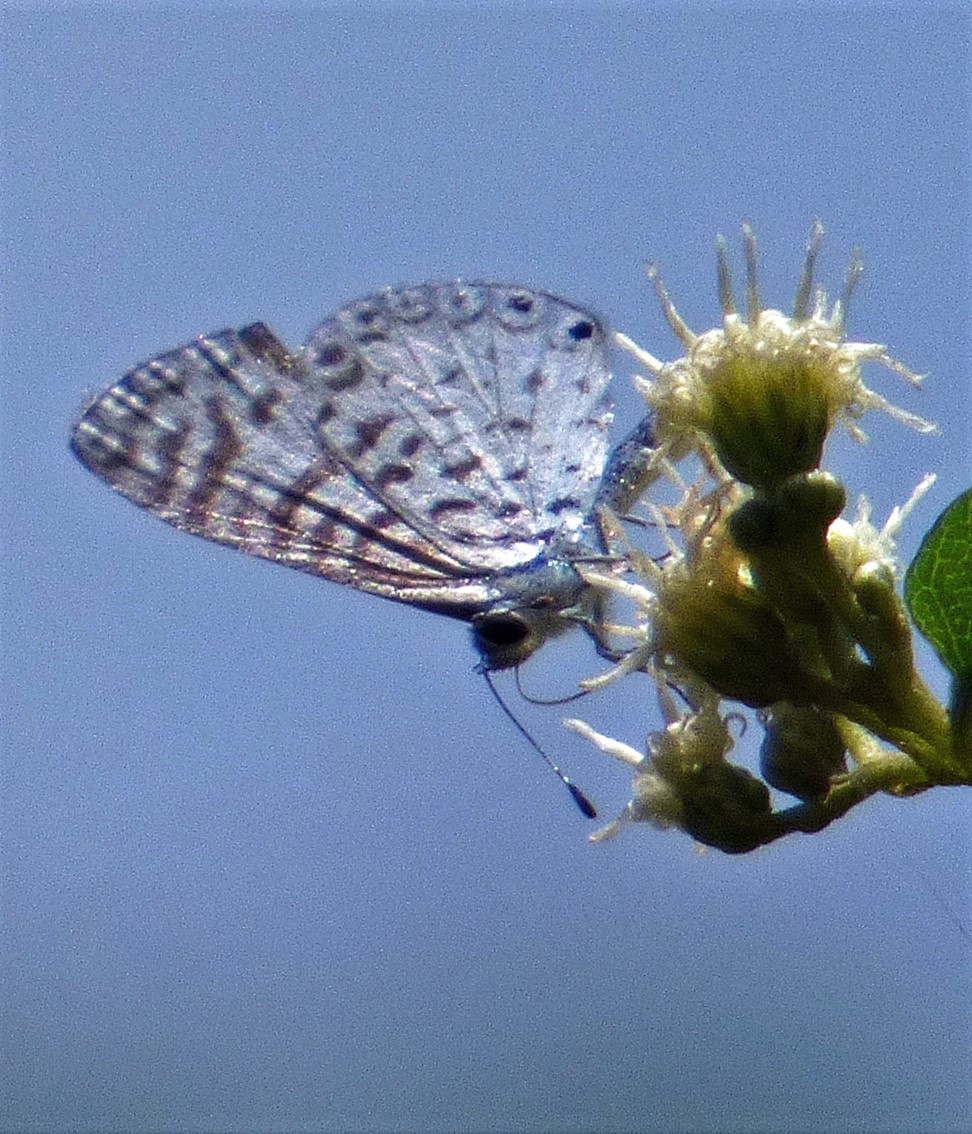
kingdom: Animalia
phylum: Arthropoda
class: Insecta
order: Lepidoptera
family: Lycaenidae
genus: Leptotes
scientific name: Leptotes cassius
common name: Cassius blue
